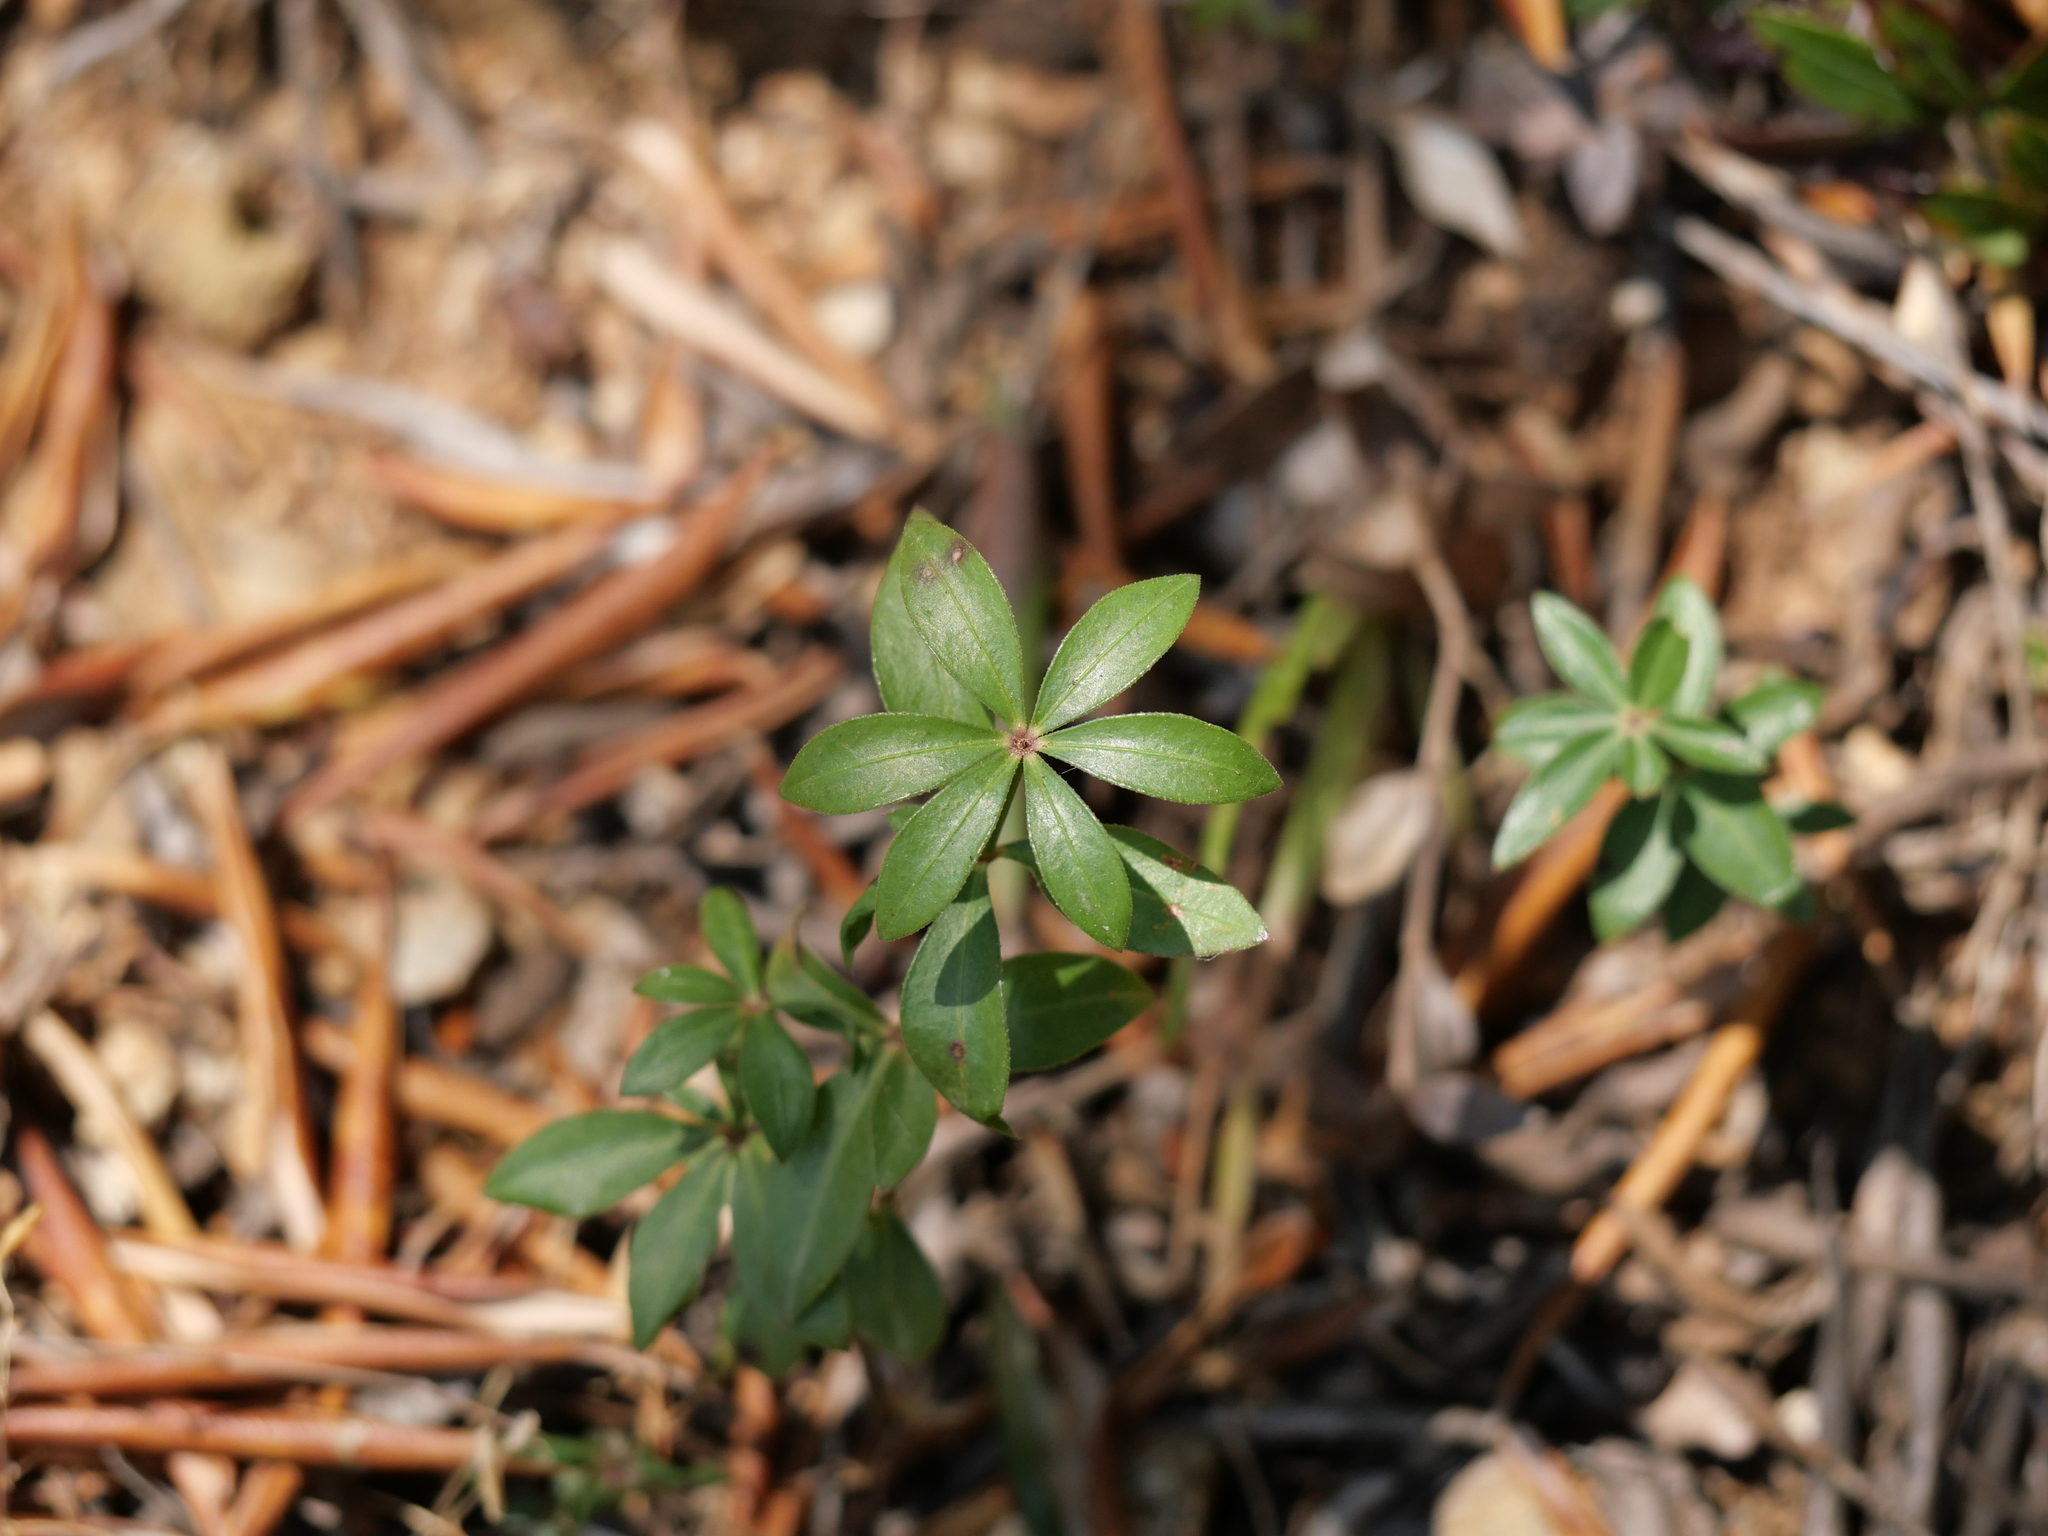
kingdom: Plantae
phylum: Tracheophyta
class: Magnoliopsida
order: Gentianales
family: Rubiaceae
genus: Rubia
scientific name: Rubia peregrina
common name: Wild madder
